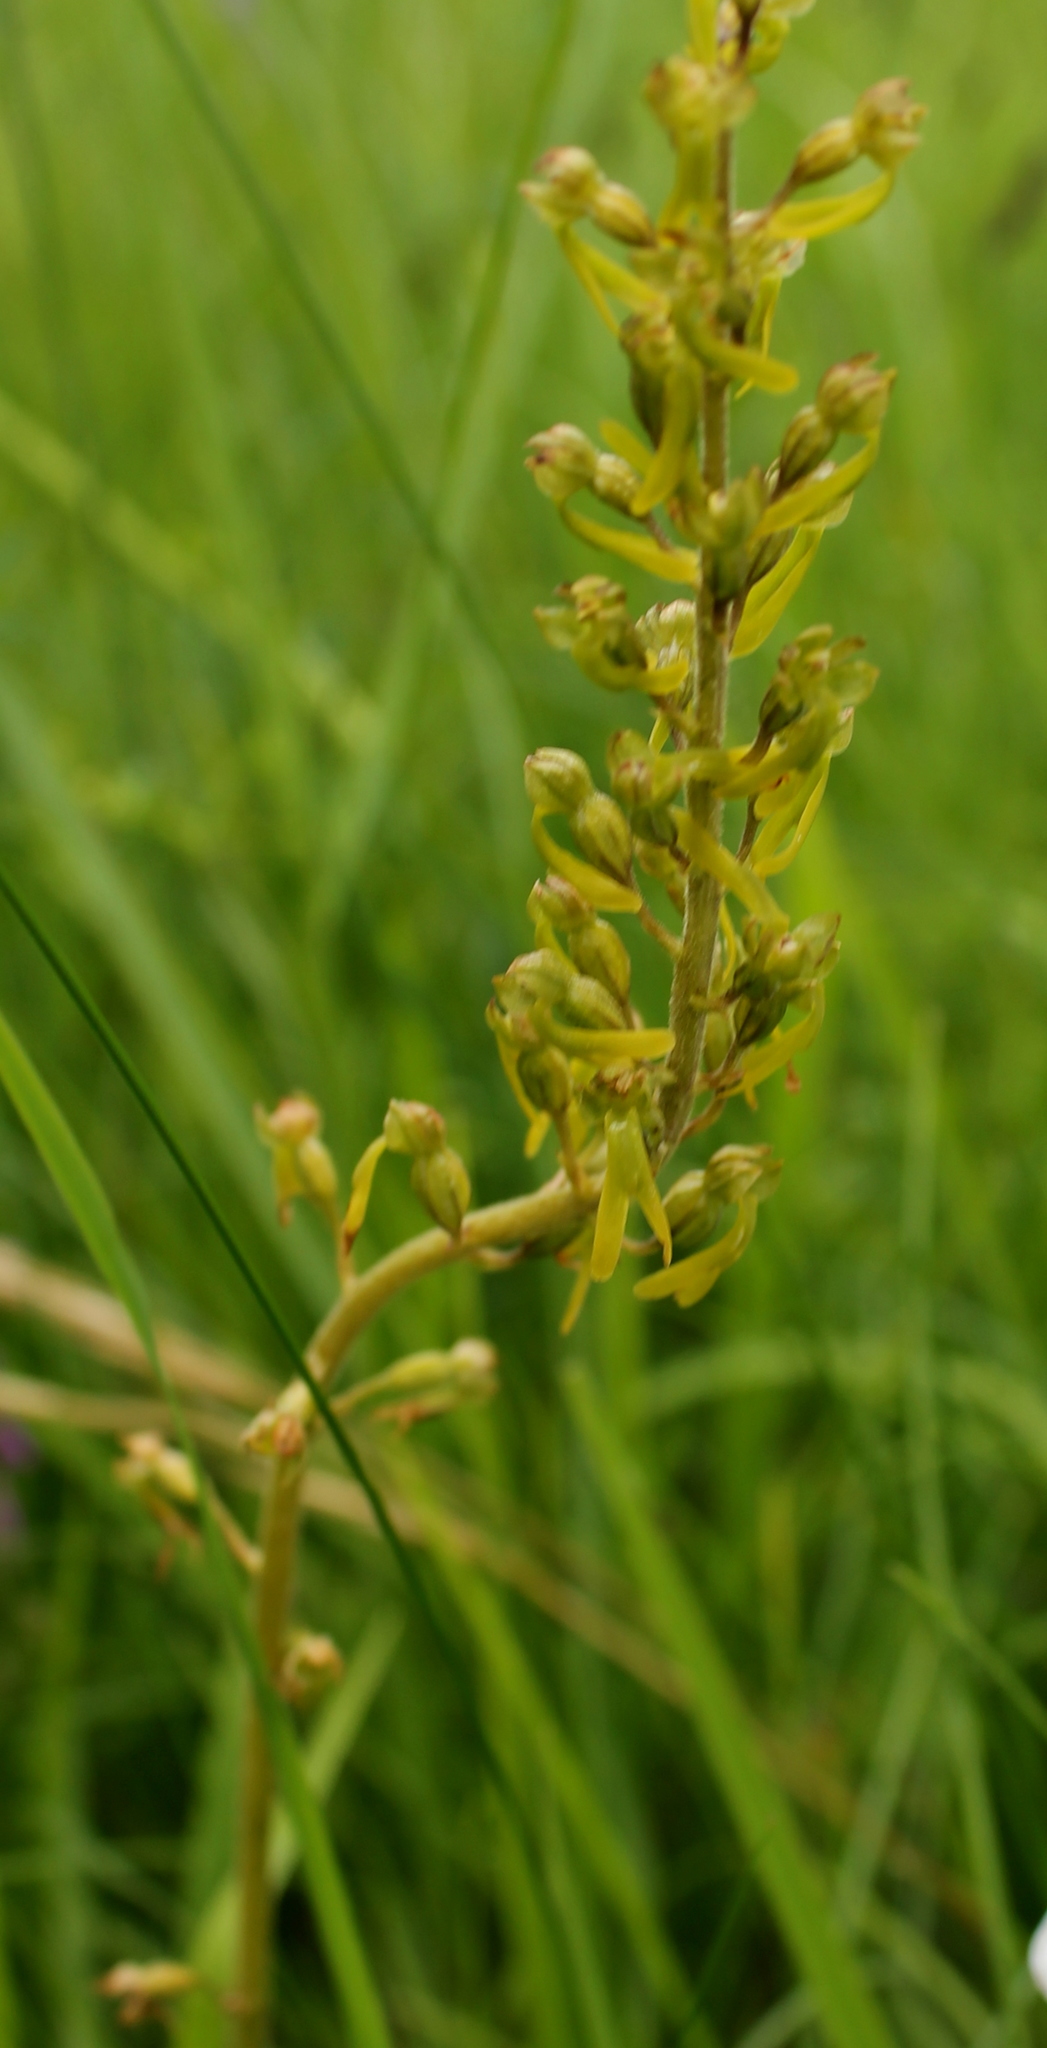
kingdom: Plantae
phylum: Tracheophyta
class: Liliopsida
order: Asparagales
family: Orchidaceae
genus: Neottia
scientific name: Neottia ovata
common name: Common twayblade
